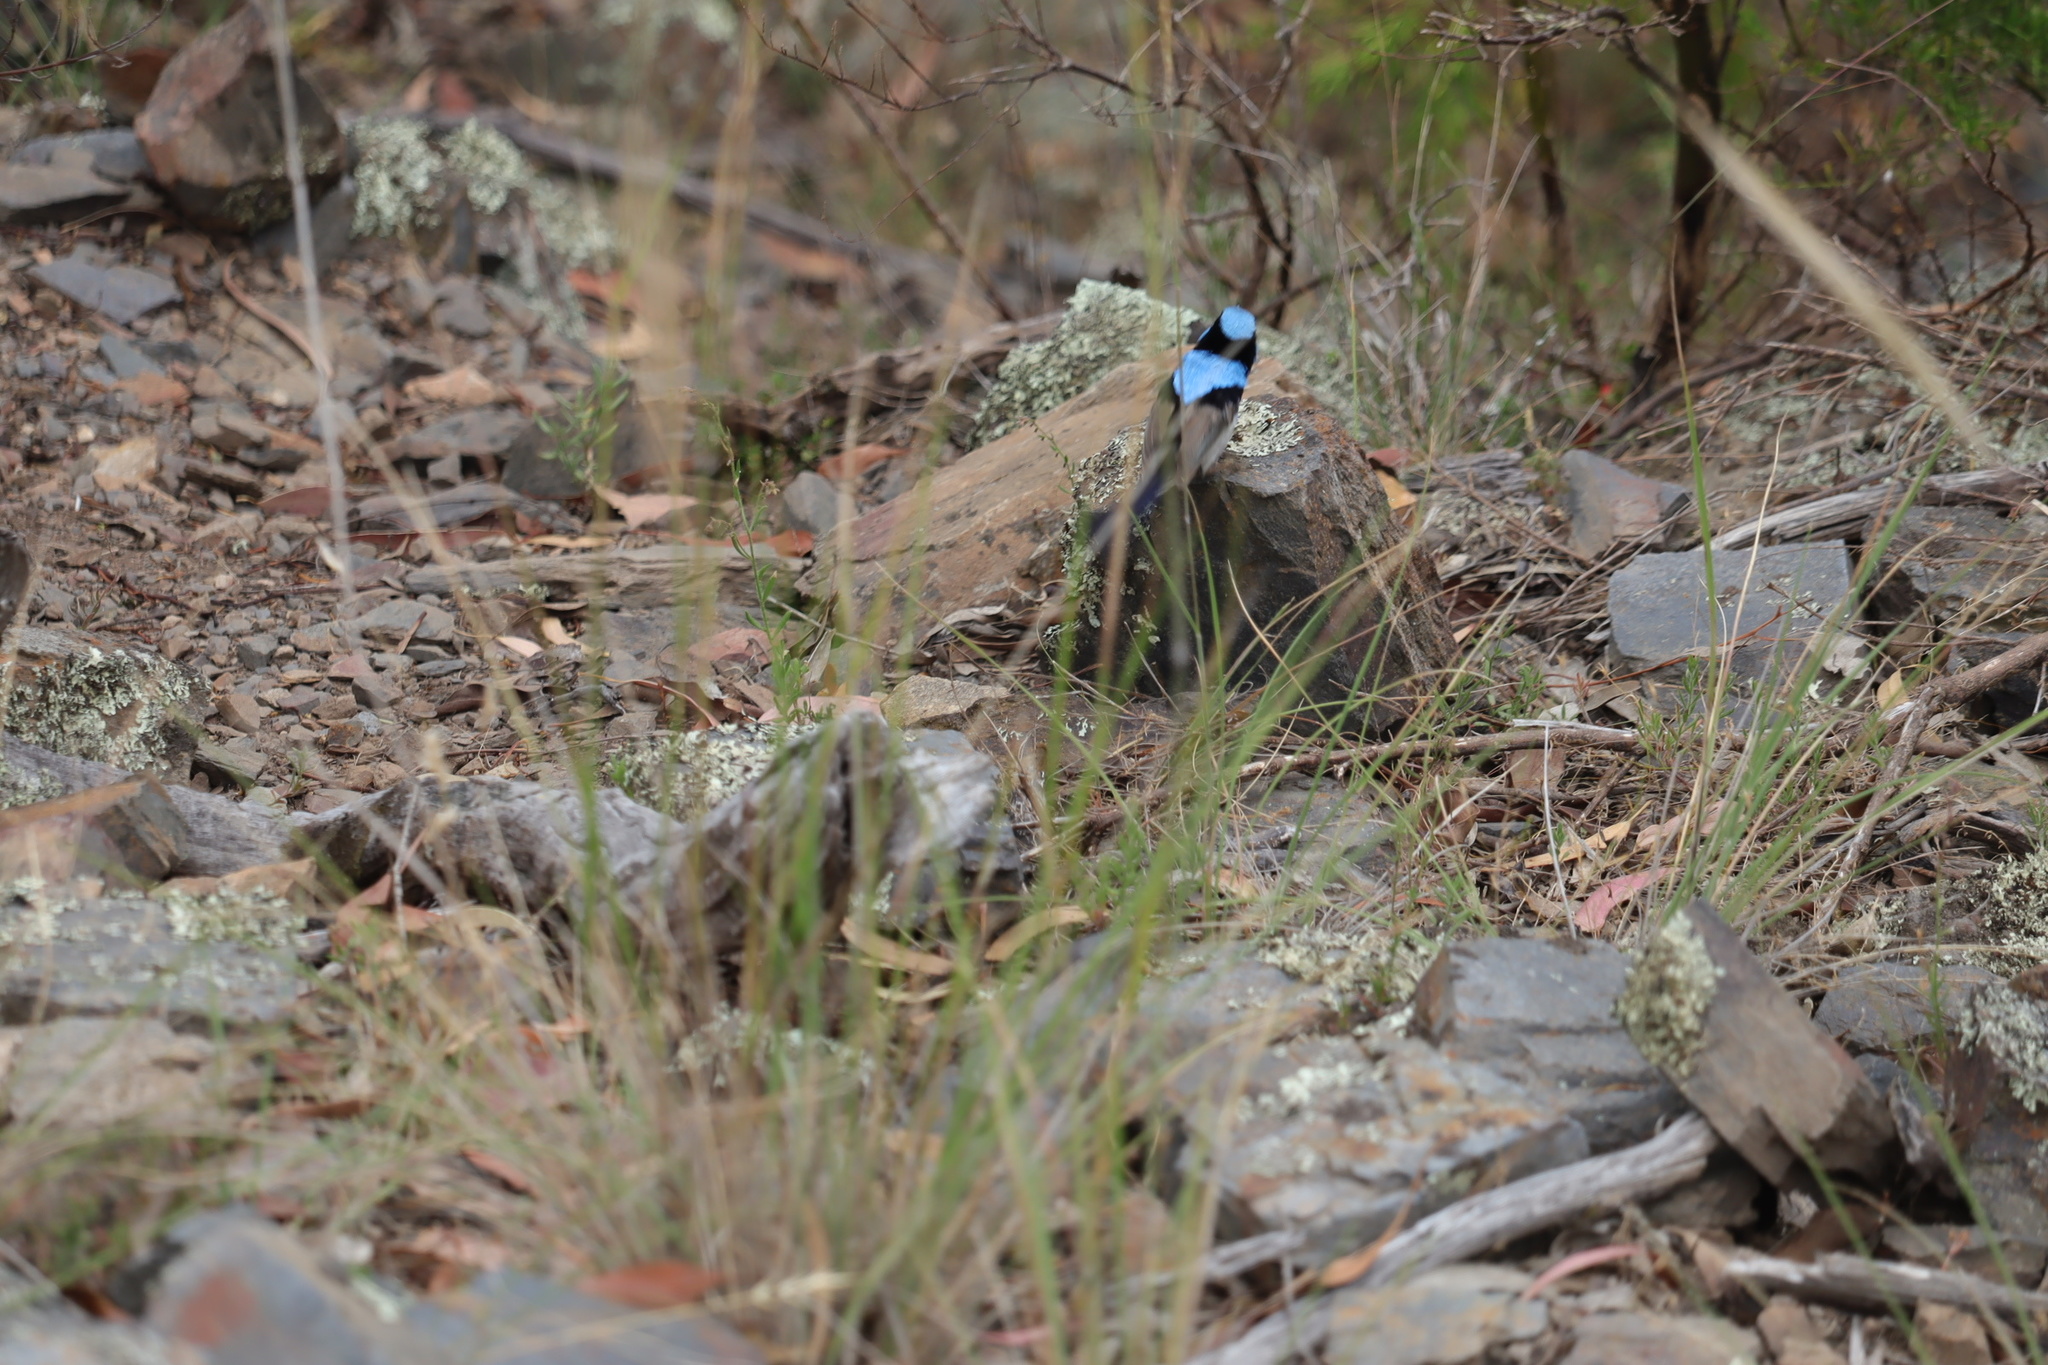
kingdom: Animalia
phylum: Chordata
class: Aves
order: Passeriformes
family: Maluridae
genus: Malurus
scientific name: Malurus cyaneus
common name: Superb fairywren
